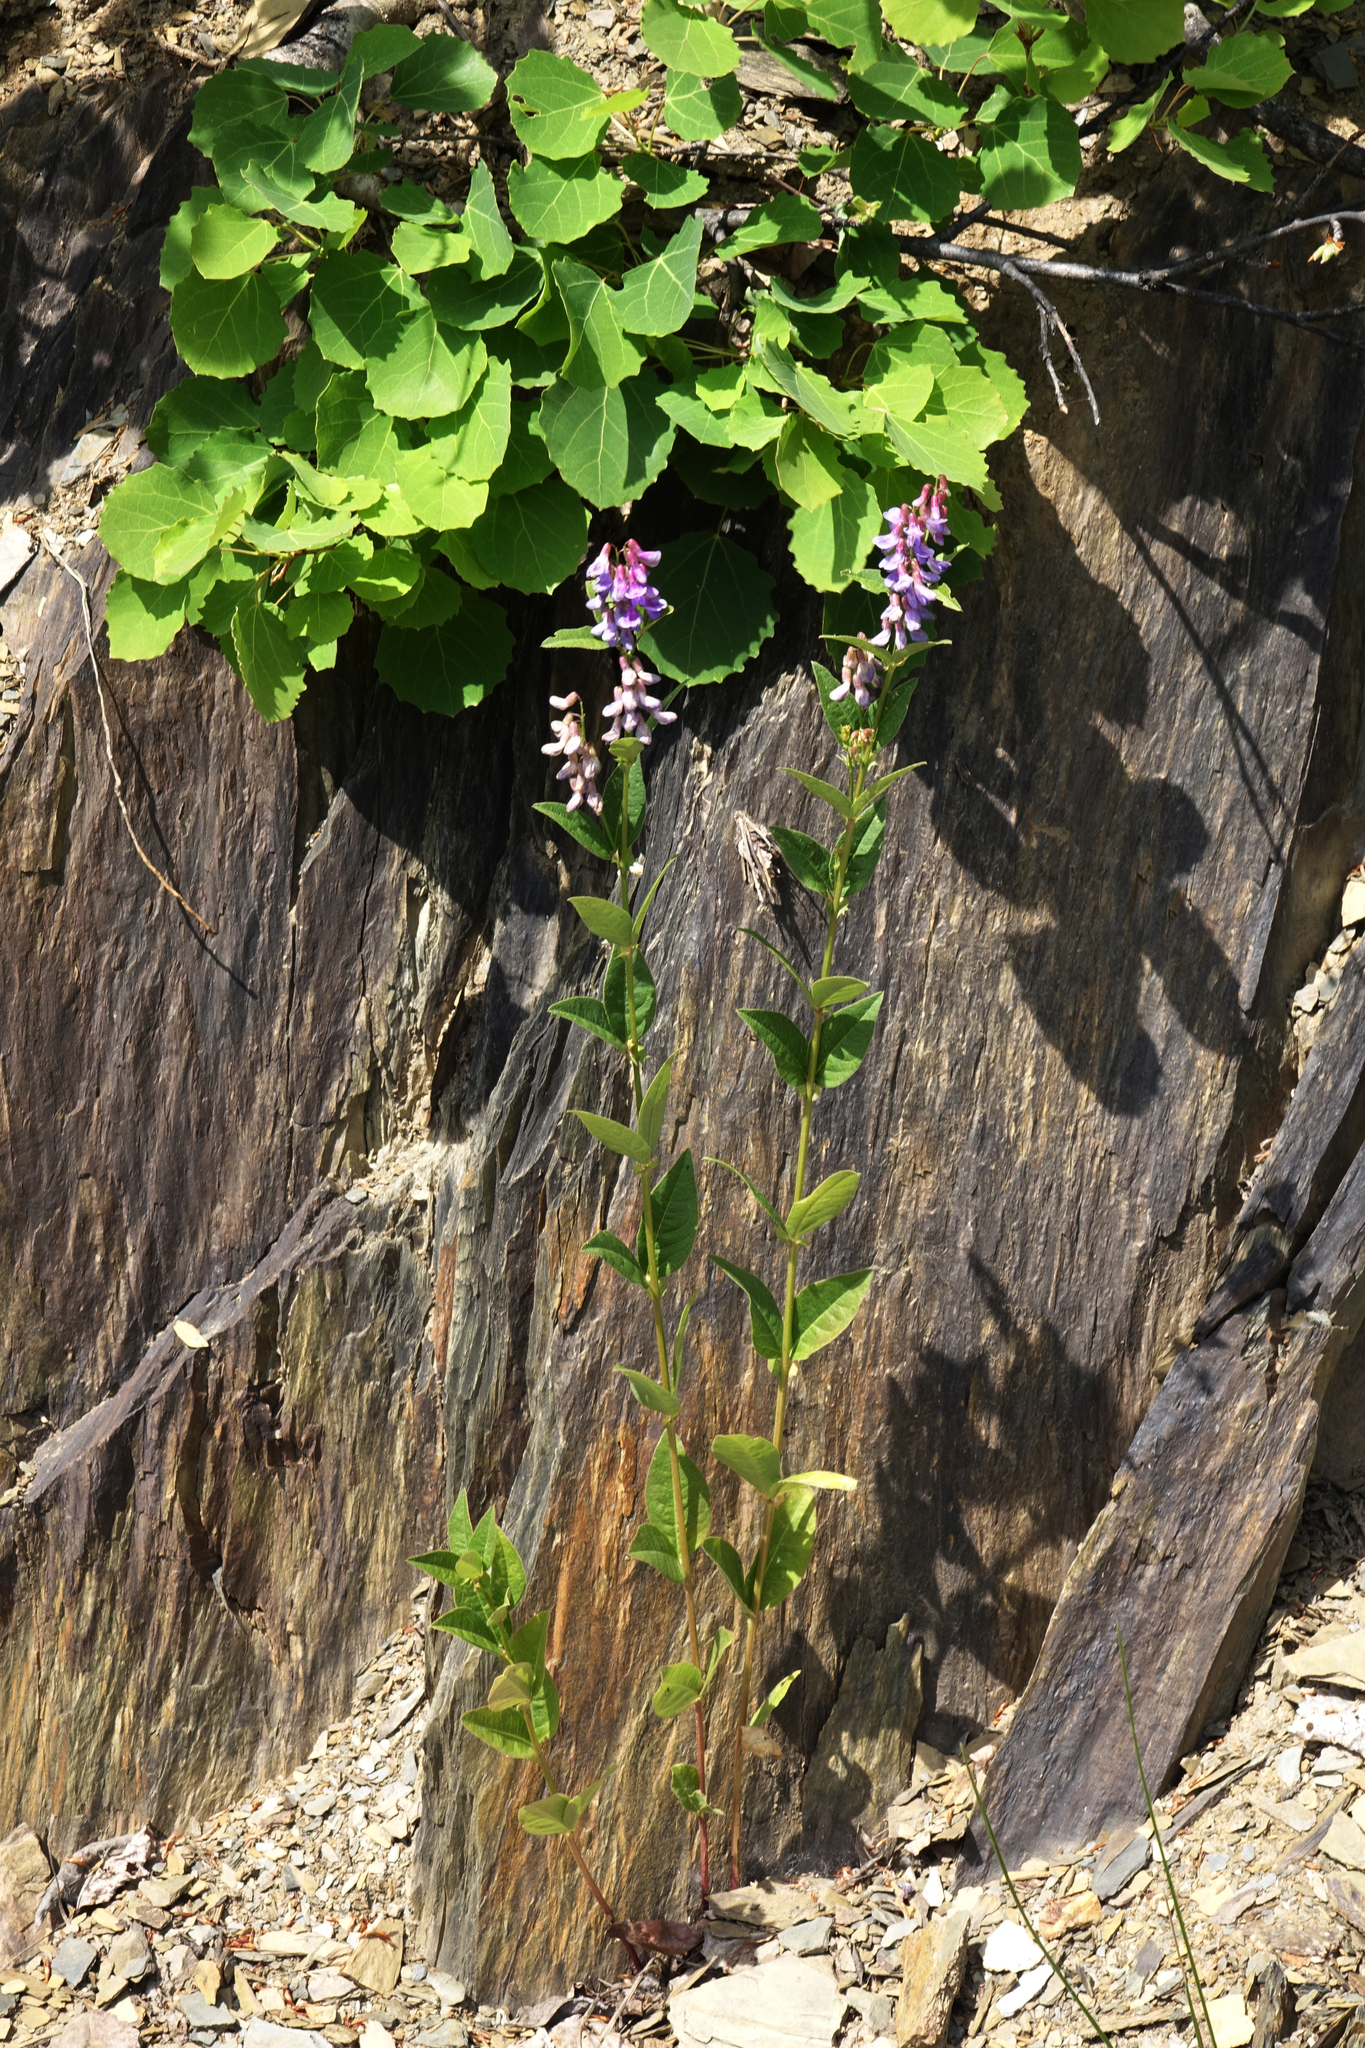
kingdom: Plantae
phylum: Tracheophyta
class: Magnoliopsida
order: Fabales
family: Fabaceae
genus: Vicia
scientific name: Vicia unijuga
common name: Two-leaf vetch
